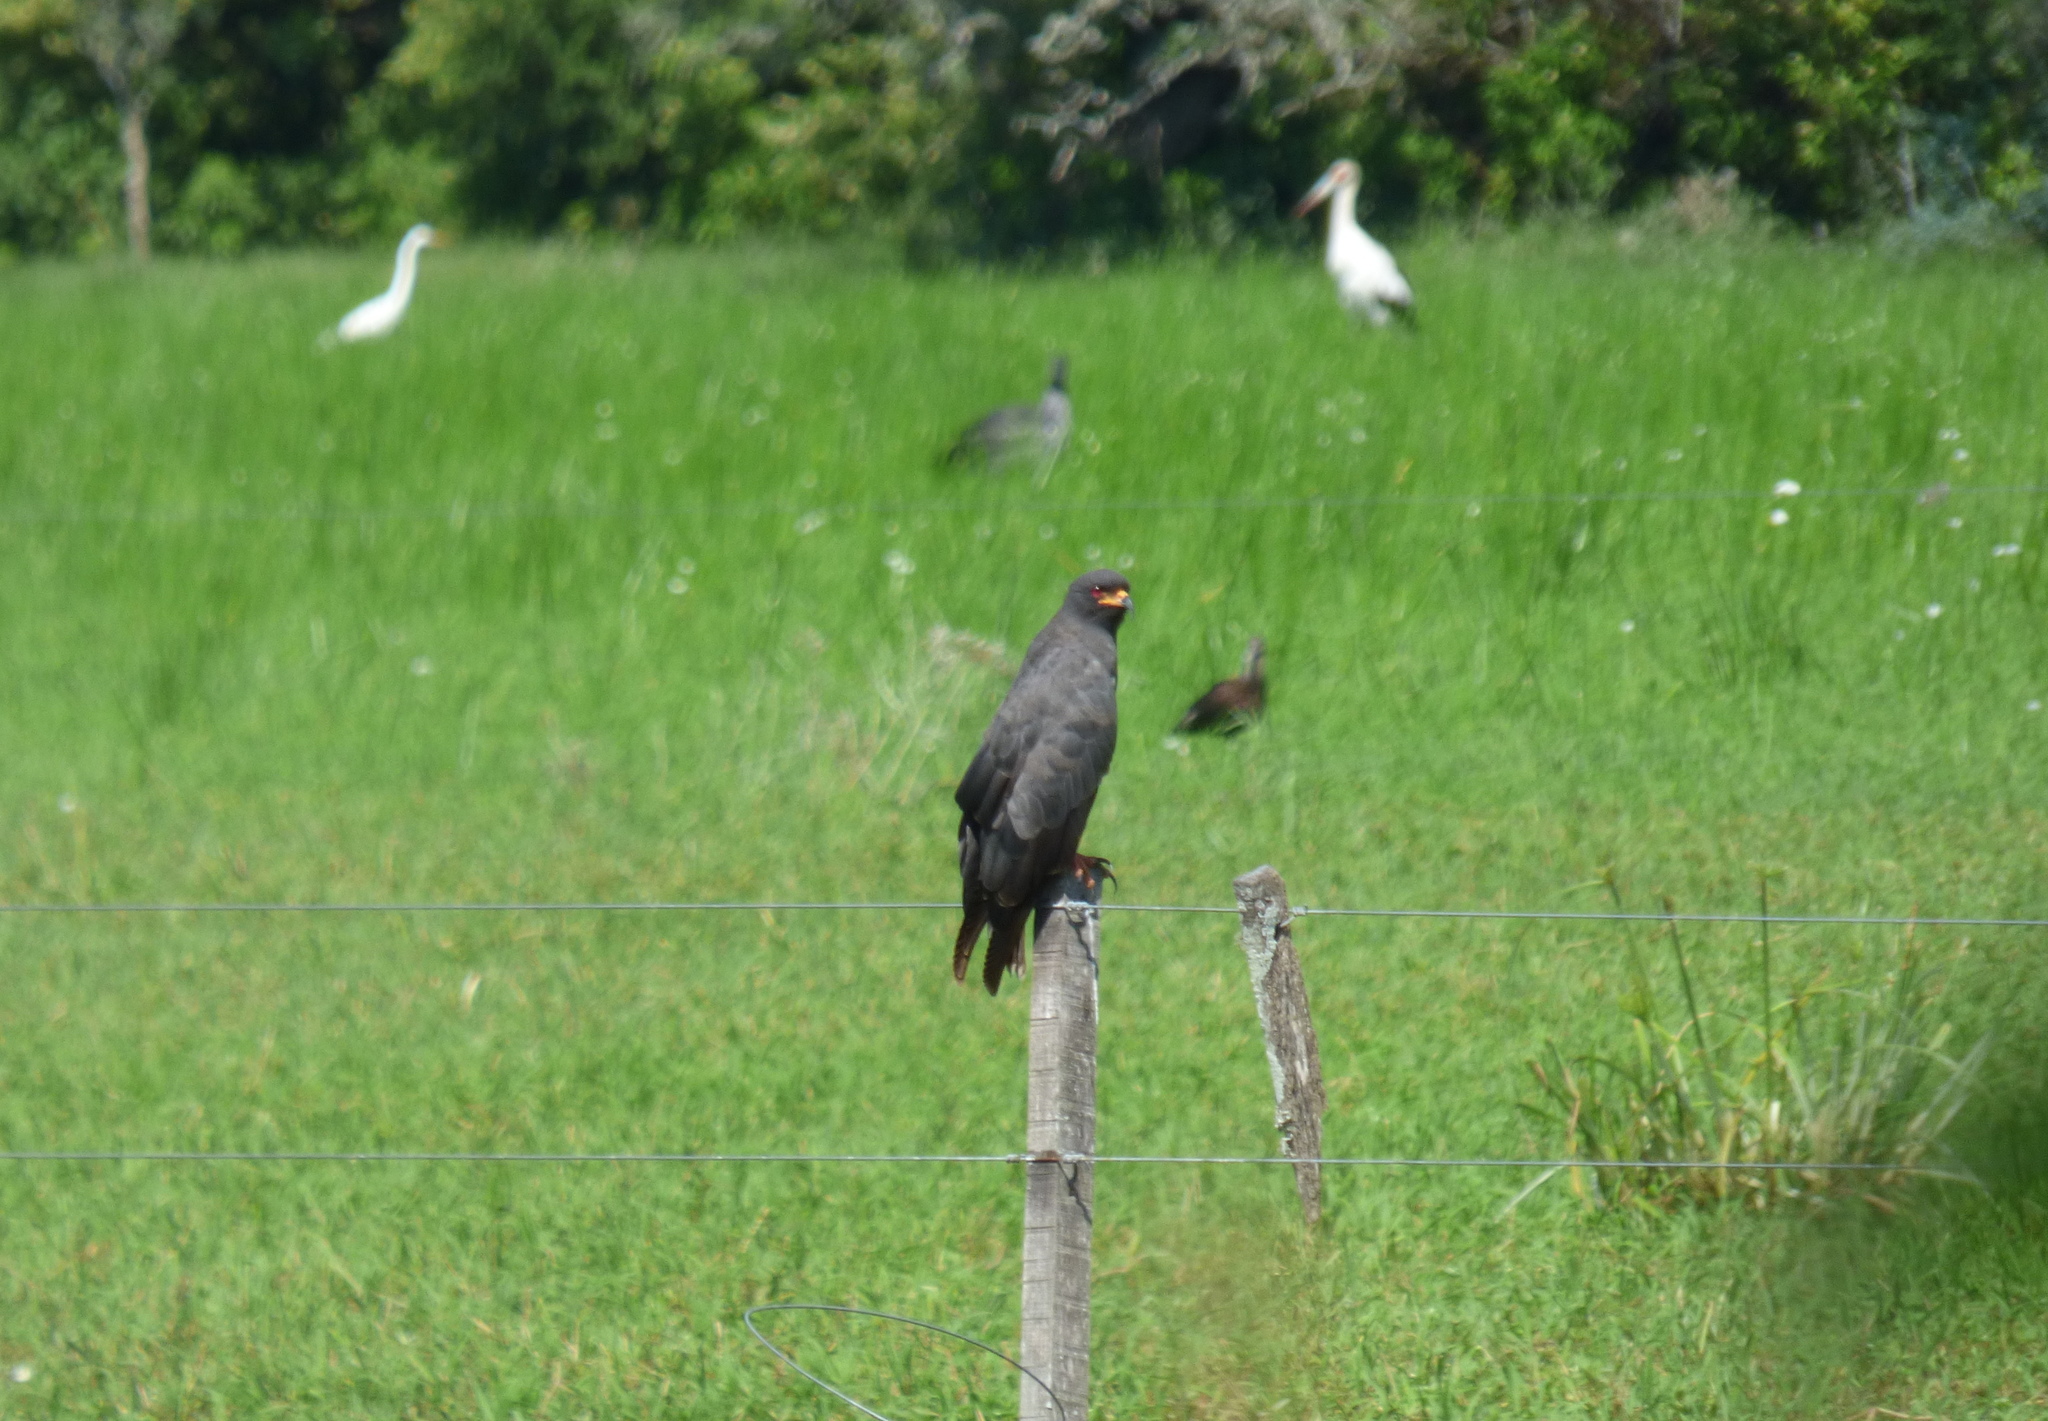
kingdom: Animalia
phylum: Chordata
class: Aves
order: Accipitriformes
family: Accipitridae
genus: Rostrhamus
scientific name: Rostrhamus sociabilis
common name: Snail kite
